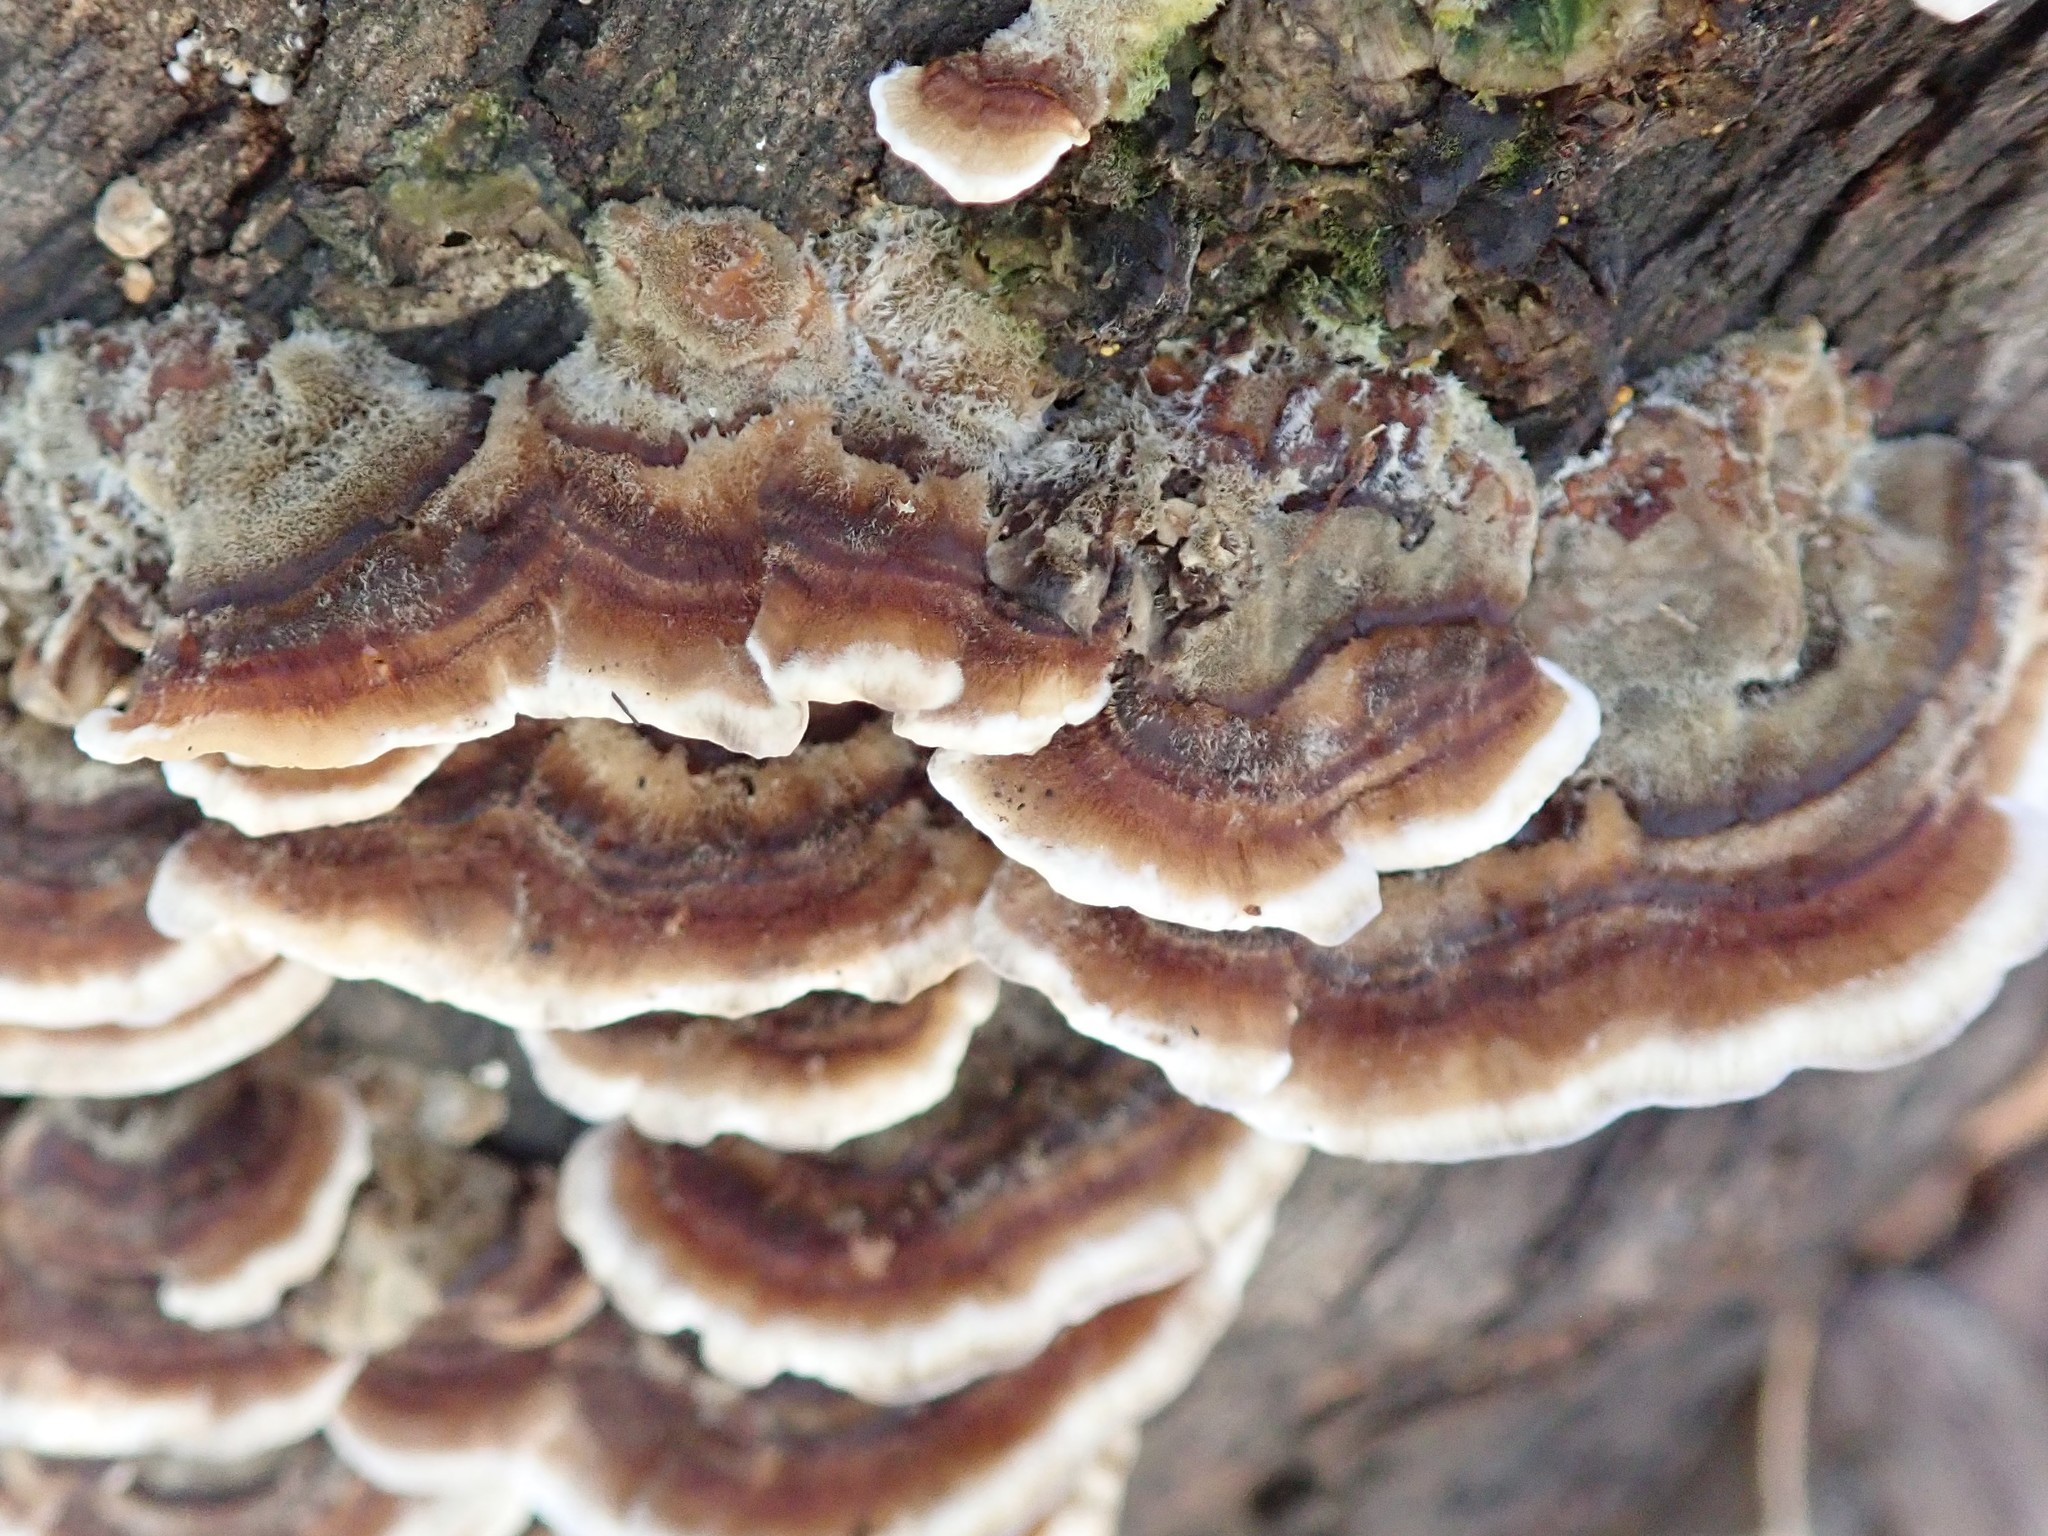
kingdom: Fungi
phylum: Basidiomycota
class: Agaricomycetes
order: Polyporales
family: Polyporaceae
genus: Trametes
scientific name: Trametes versicolor
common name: Turkeytail
